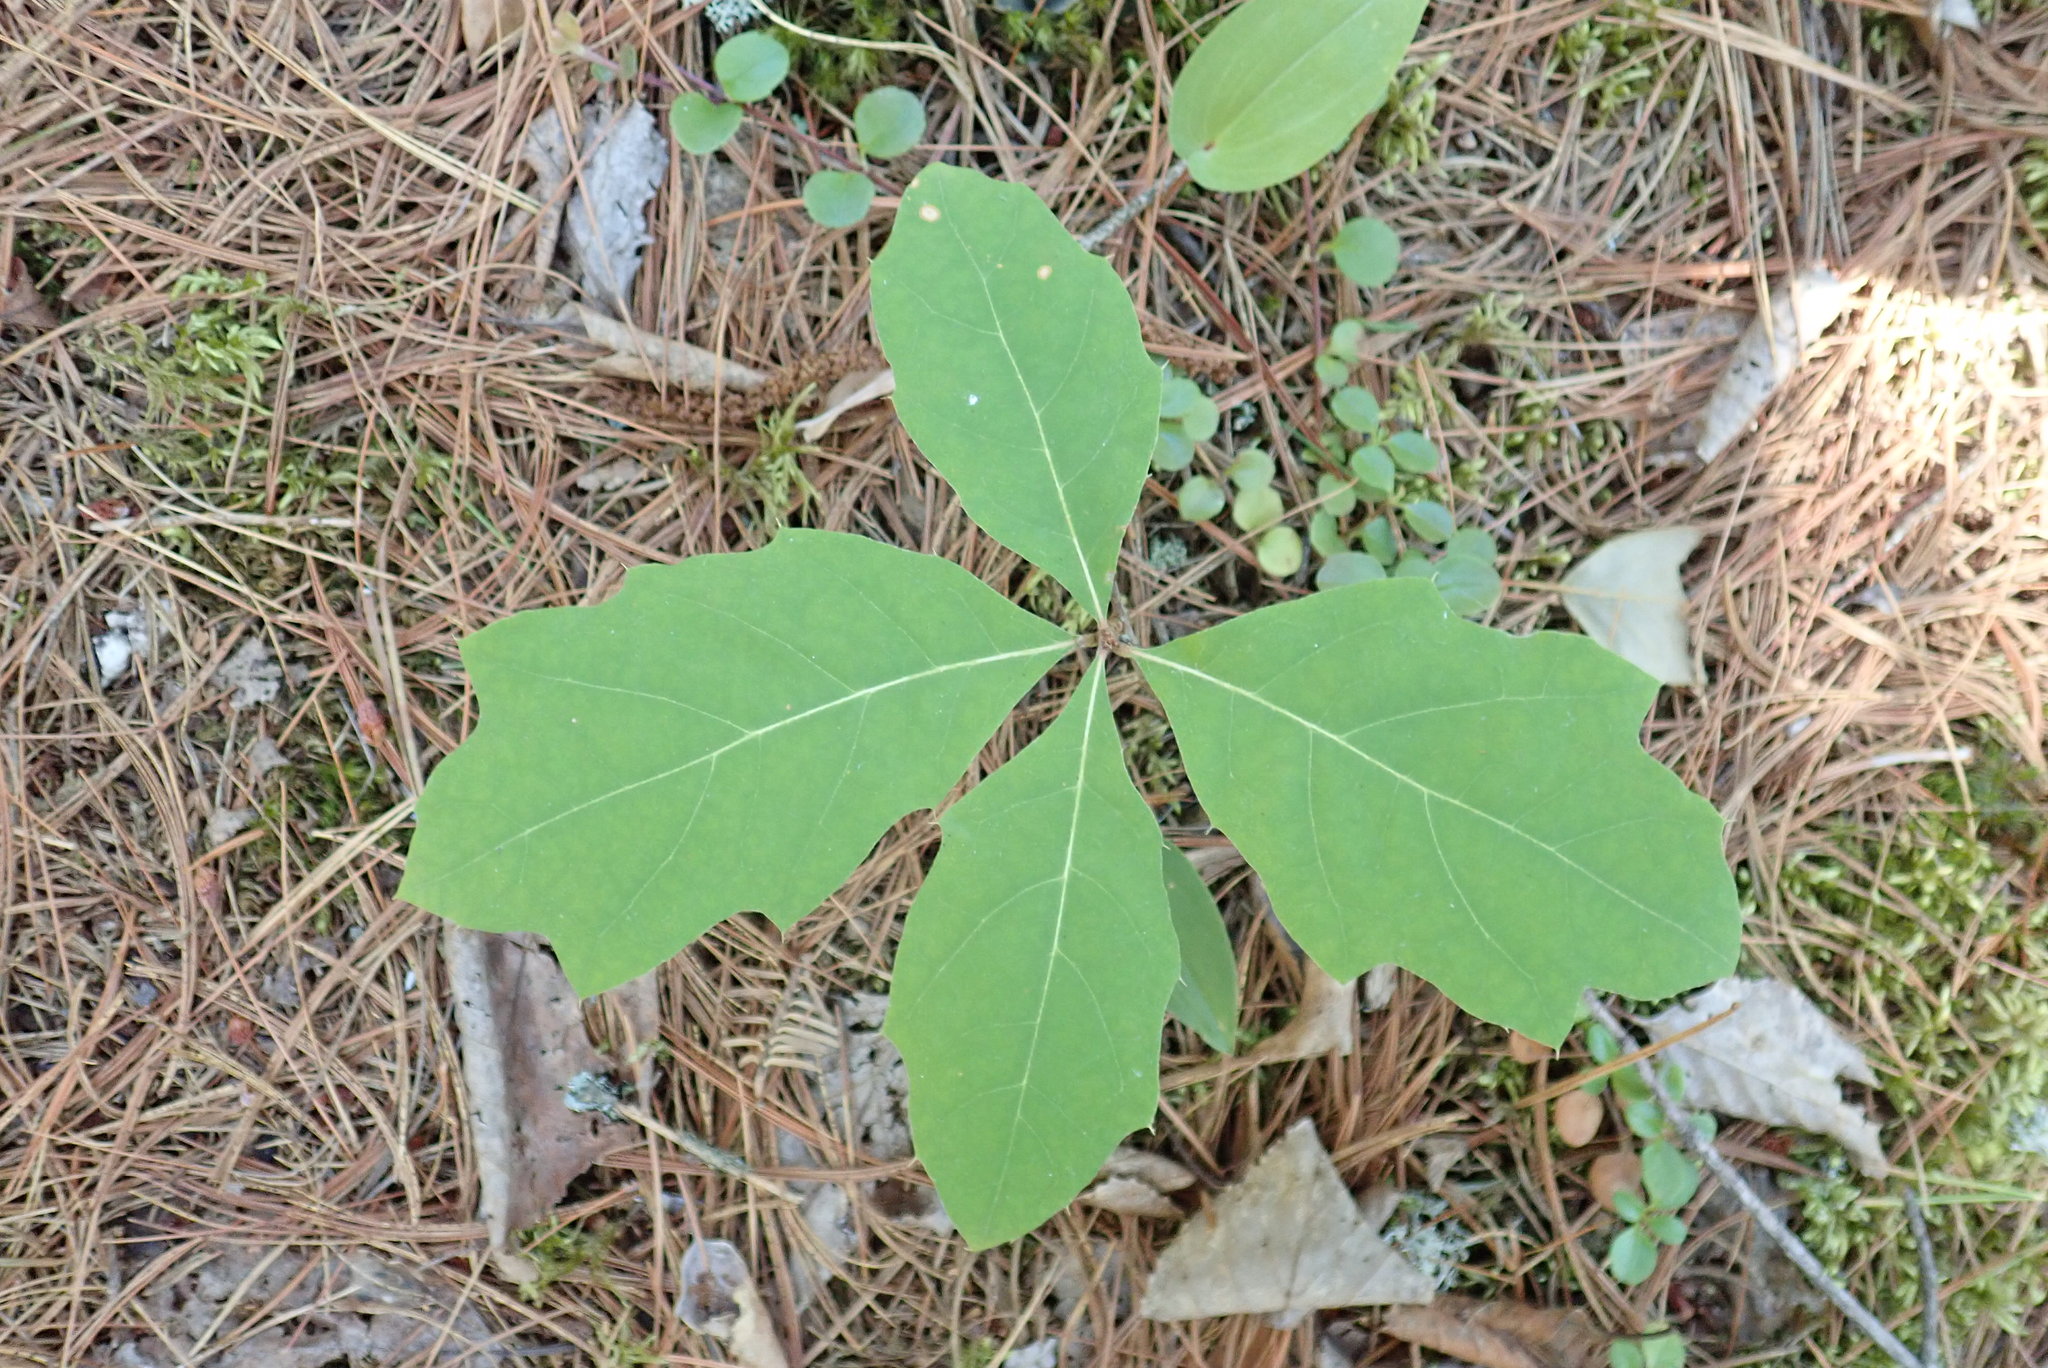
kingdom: Plantae
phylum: Tracheophyta
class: Magnoliopsida
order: Fagales
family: Fagaceae
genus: Quercus
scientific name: Quercus ellipsoidalis
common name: Hill's oak
